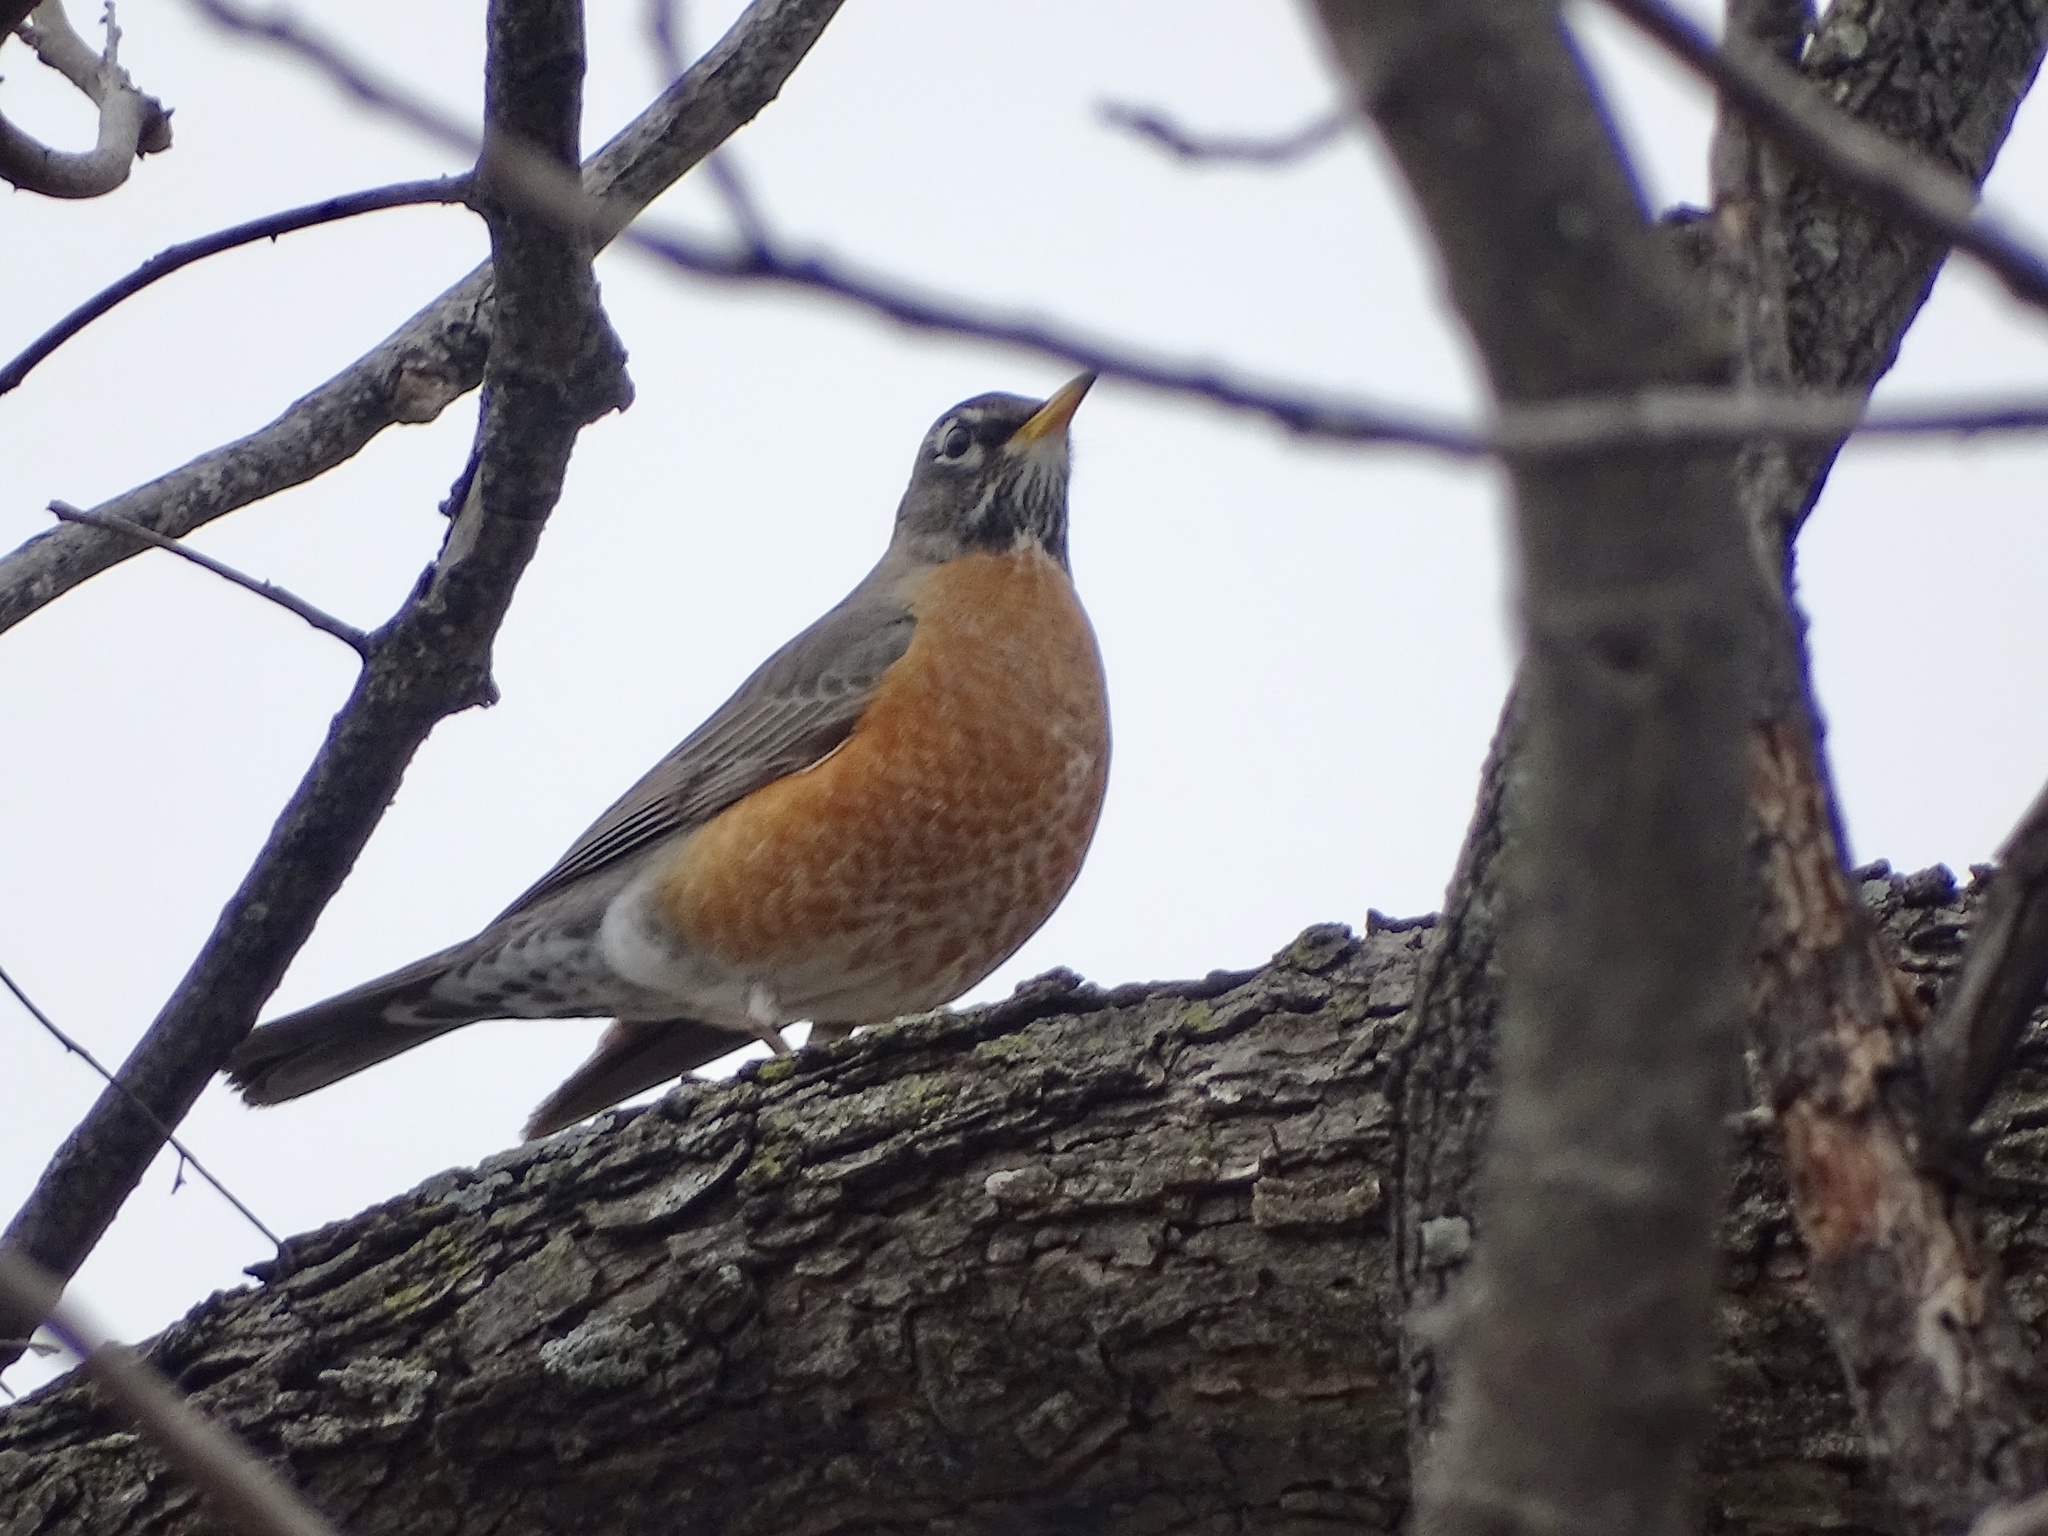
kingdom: Animalia
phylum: Chordata
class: Aves
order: Passeriformes
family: Turdidae
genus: Turdus
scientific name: Turdus migratorius
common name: American robin
